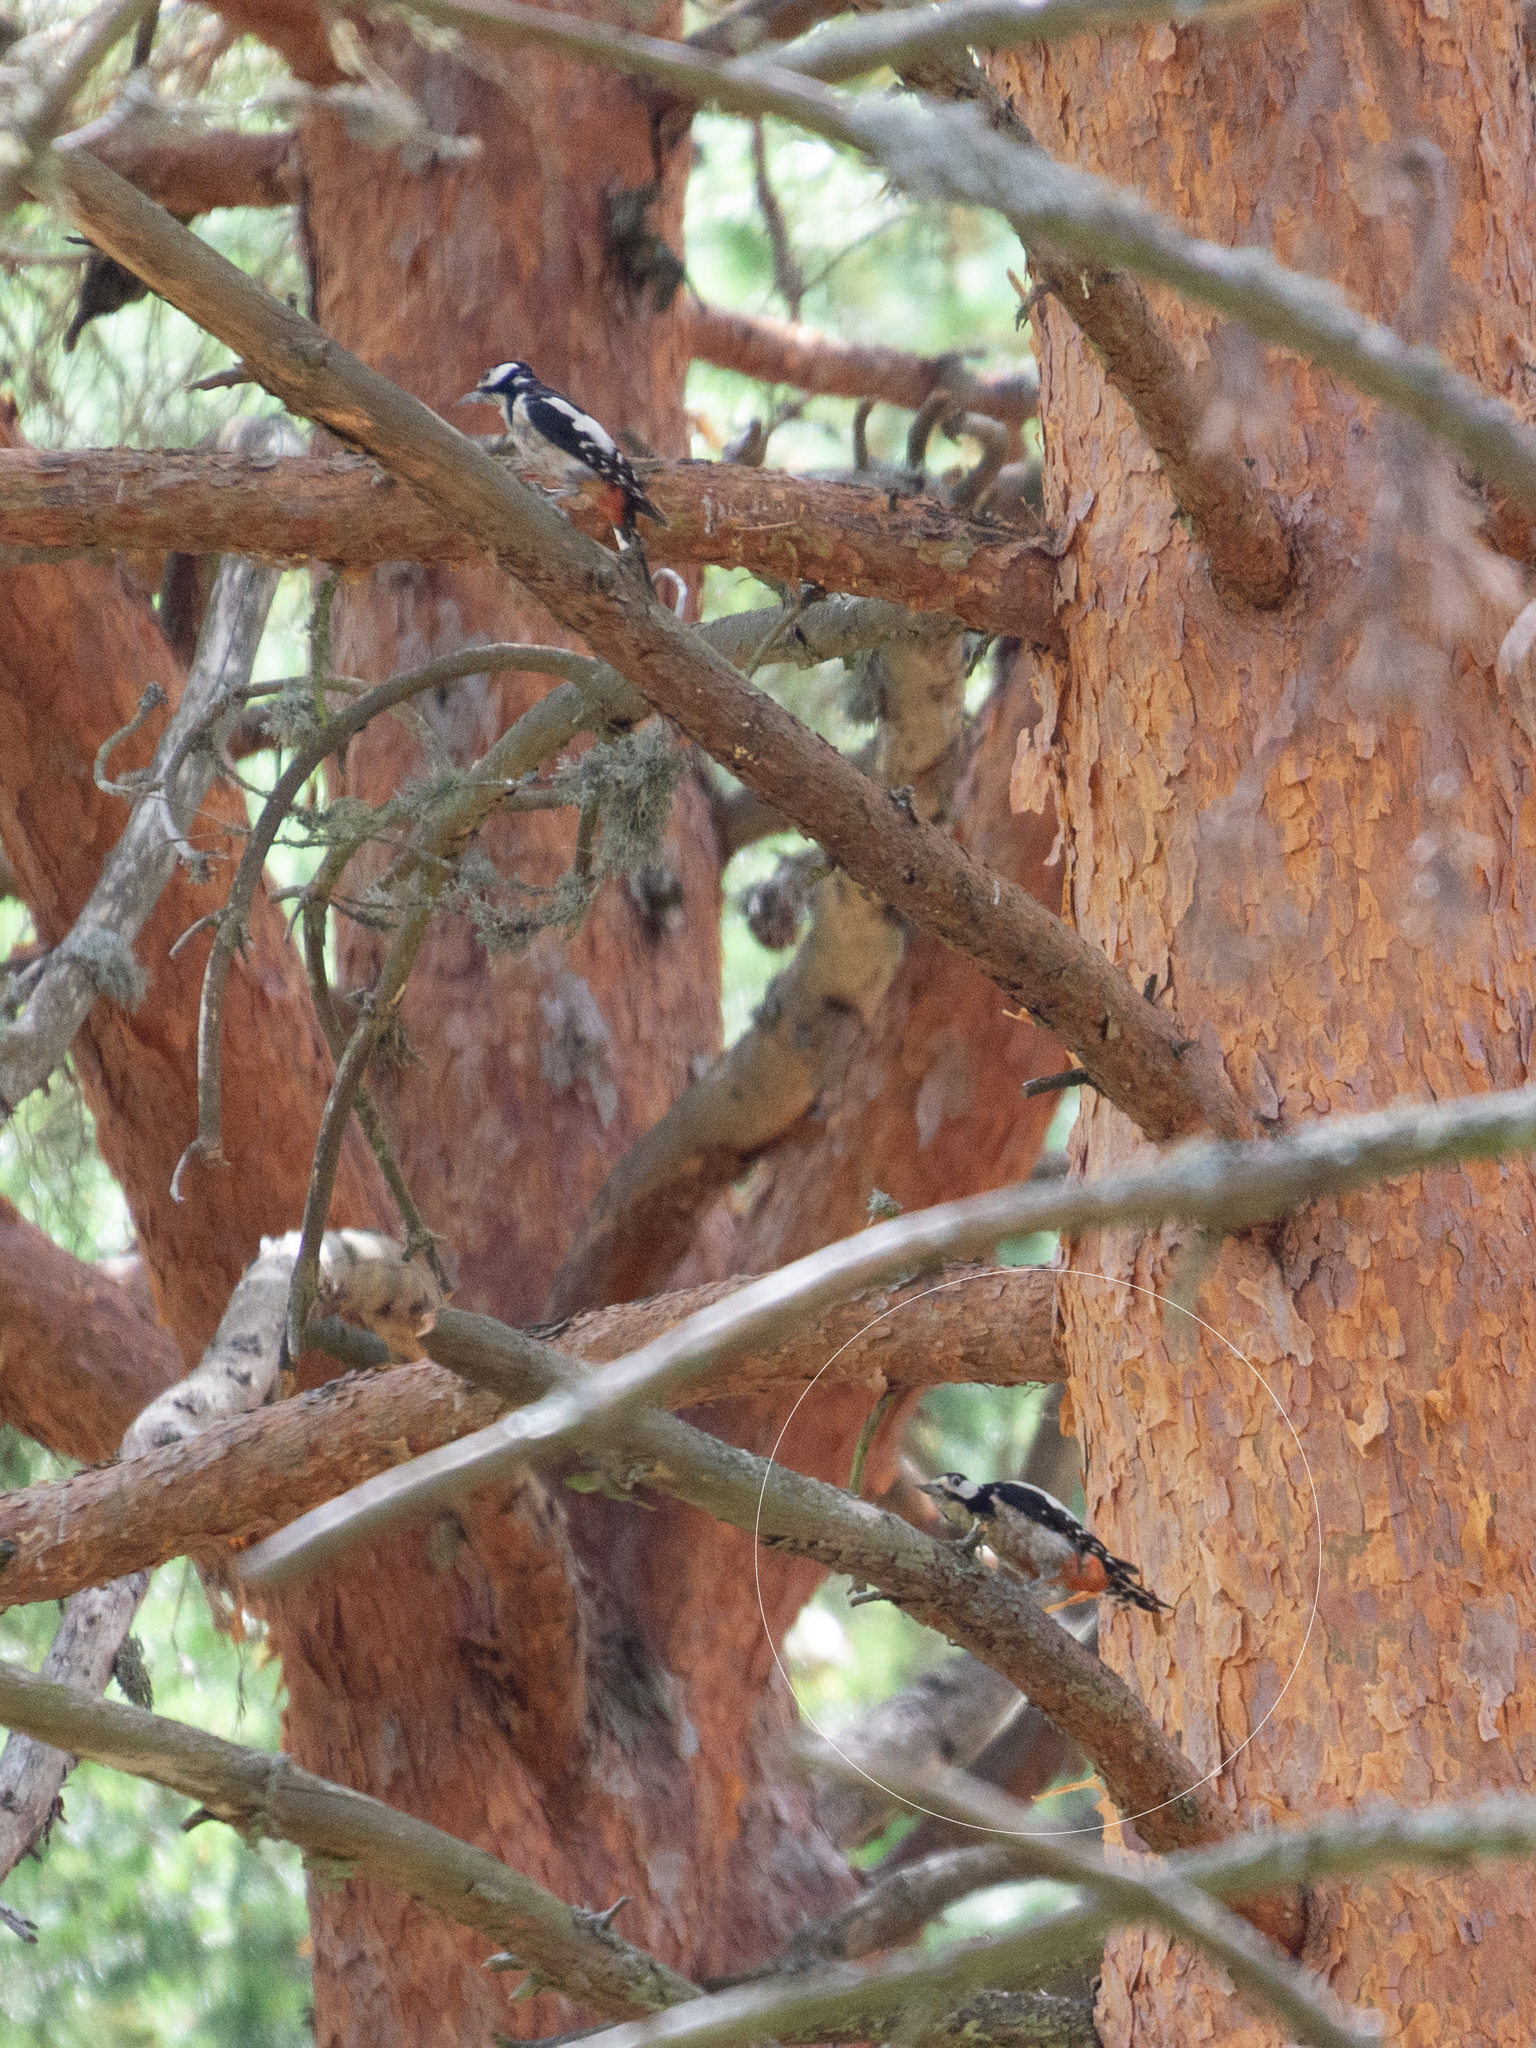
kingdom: Animalia
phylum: Chordata
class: Aves
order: Piciformes
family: Picidae
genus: Dendrocopos
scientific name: Dendrocopos major
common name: Great spotted woodpecker
